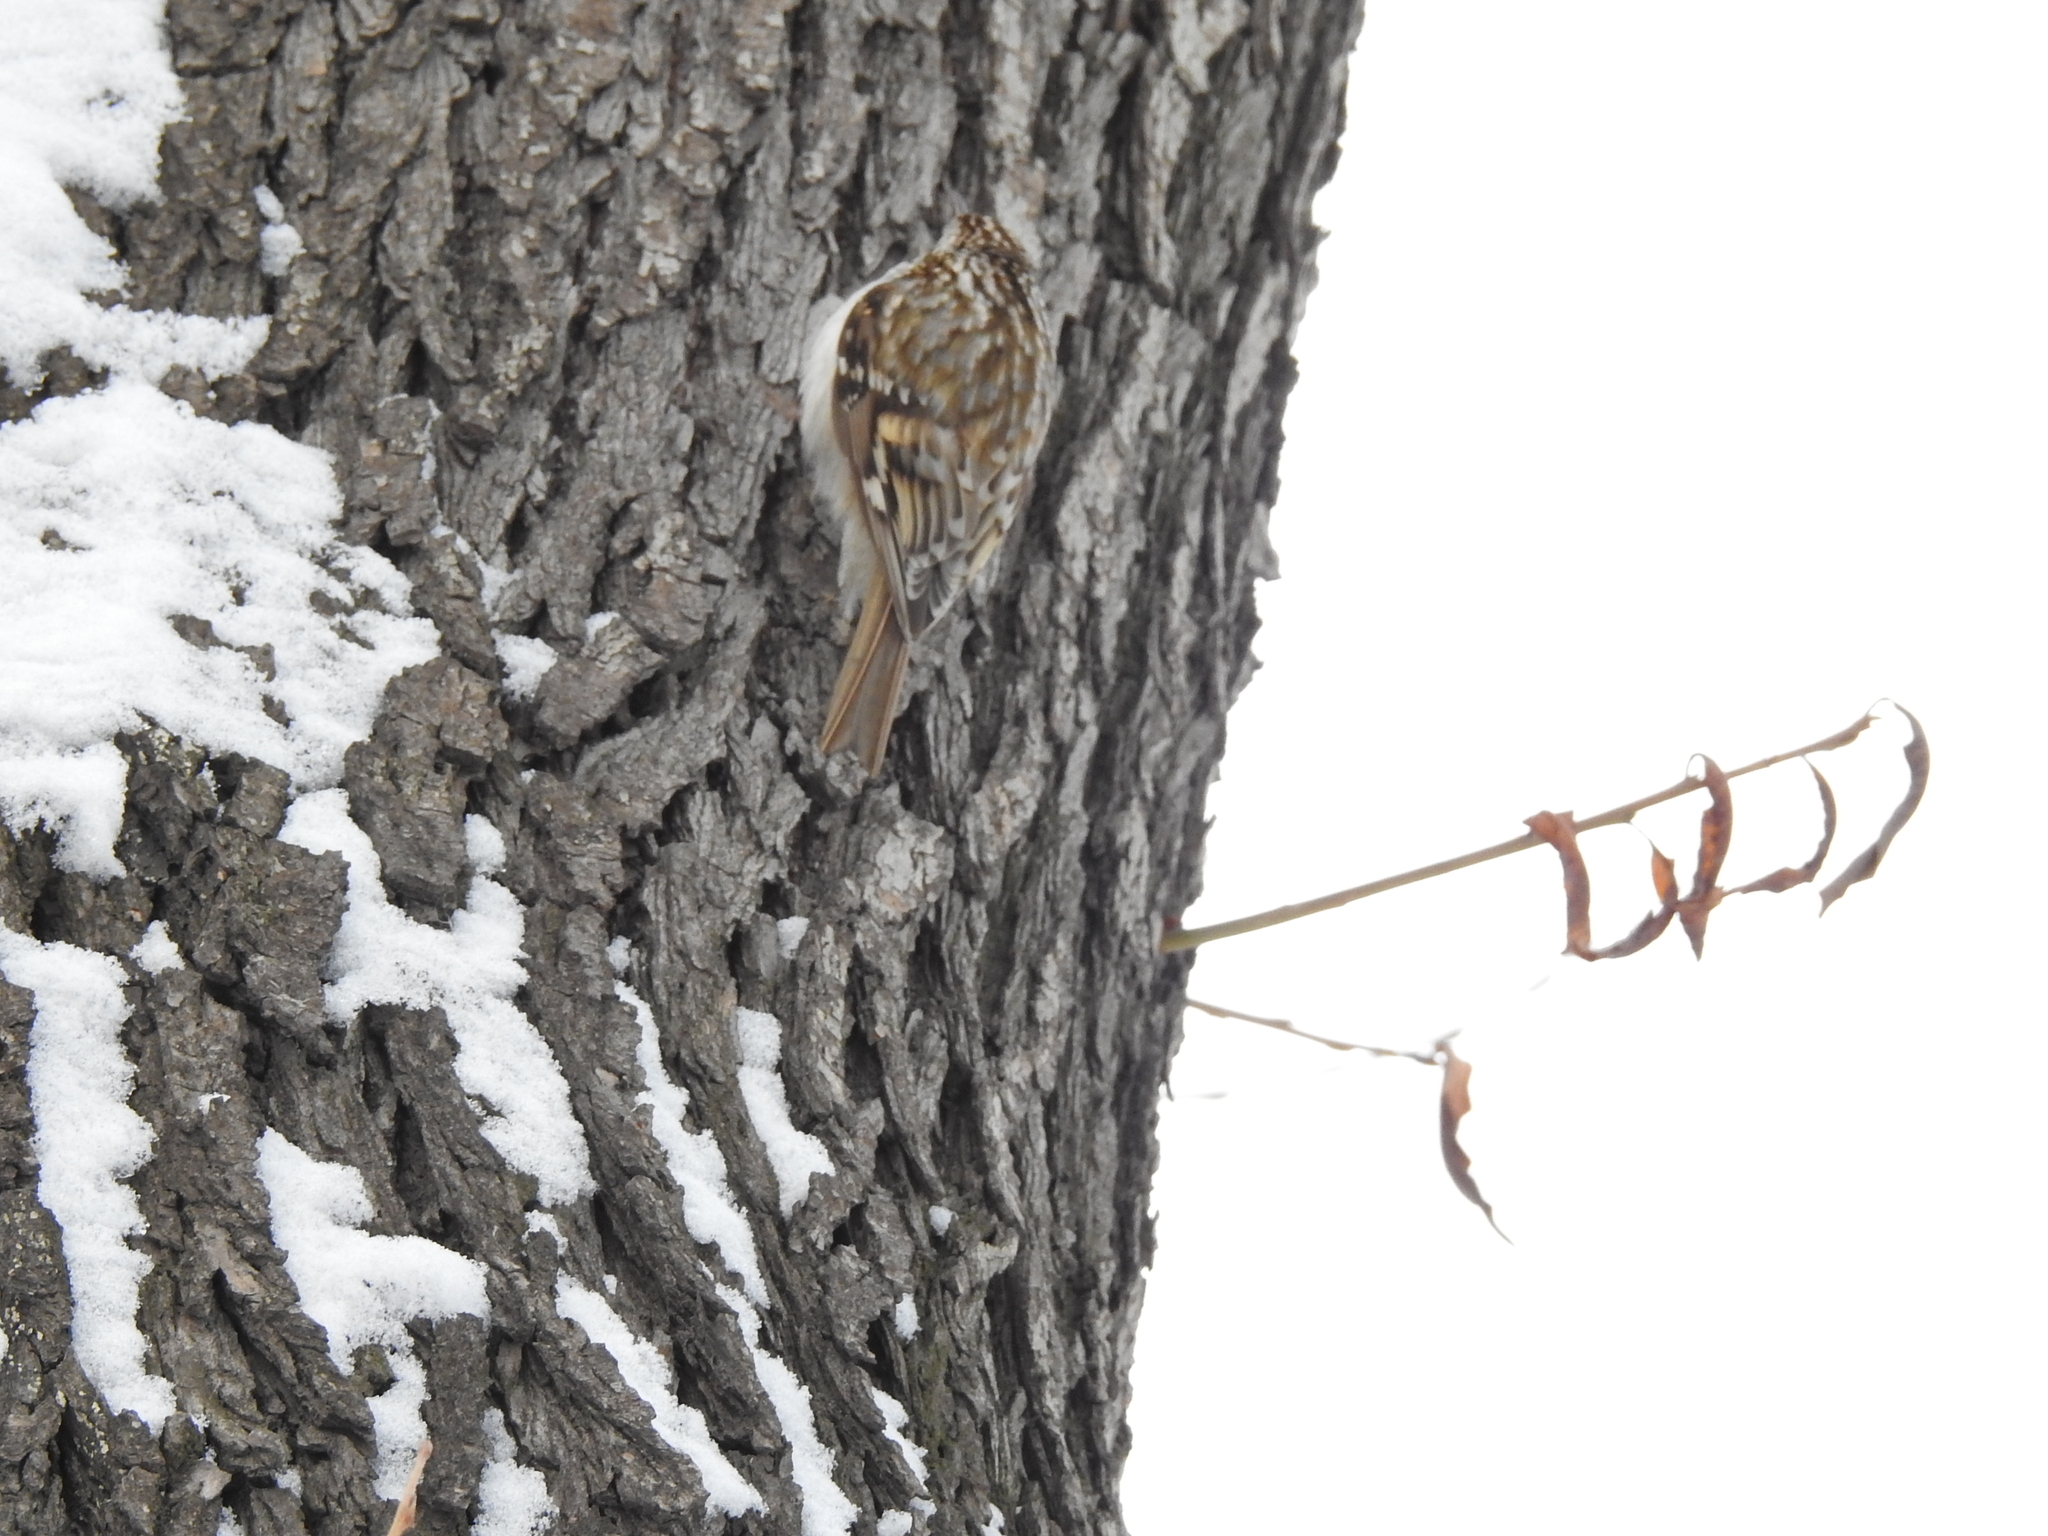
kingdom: Animalia
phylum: Chordata
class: Aves
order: Passeriformes
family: Certhiidae
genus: Certhia
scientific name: Certhia familiaris
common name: Eurasian treecreeper
